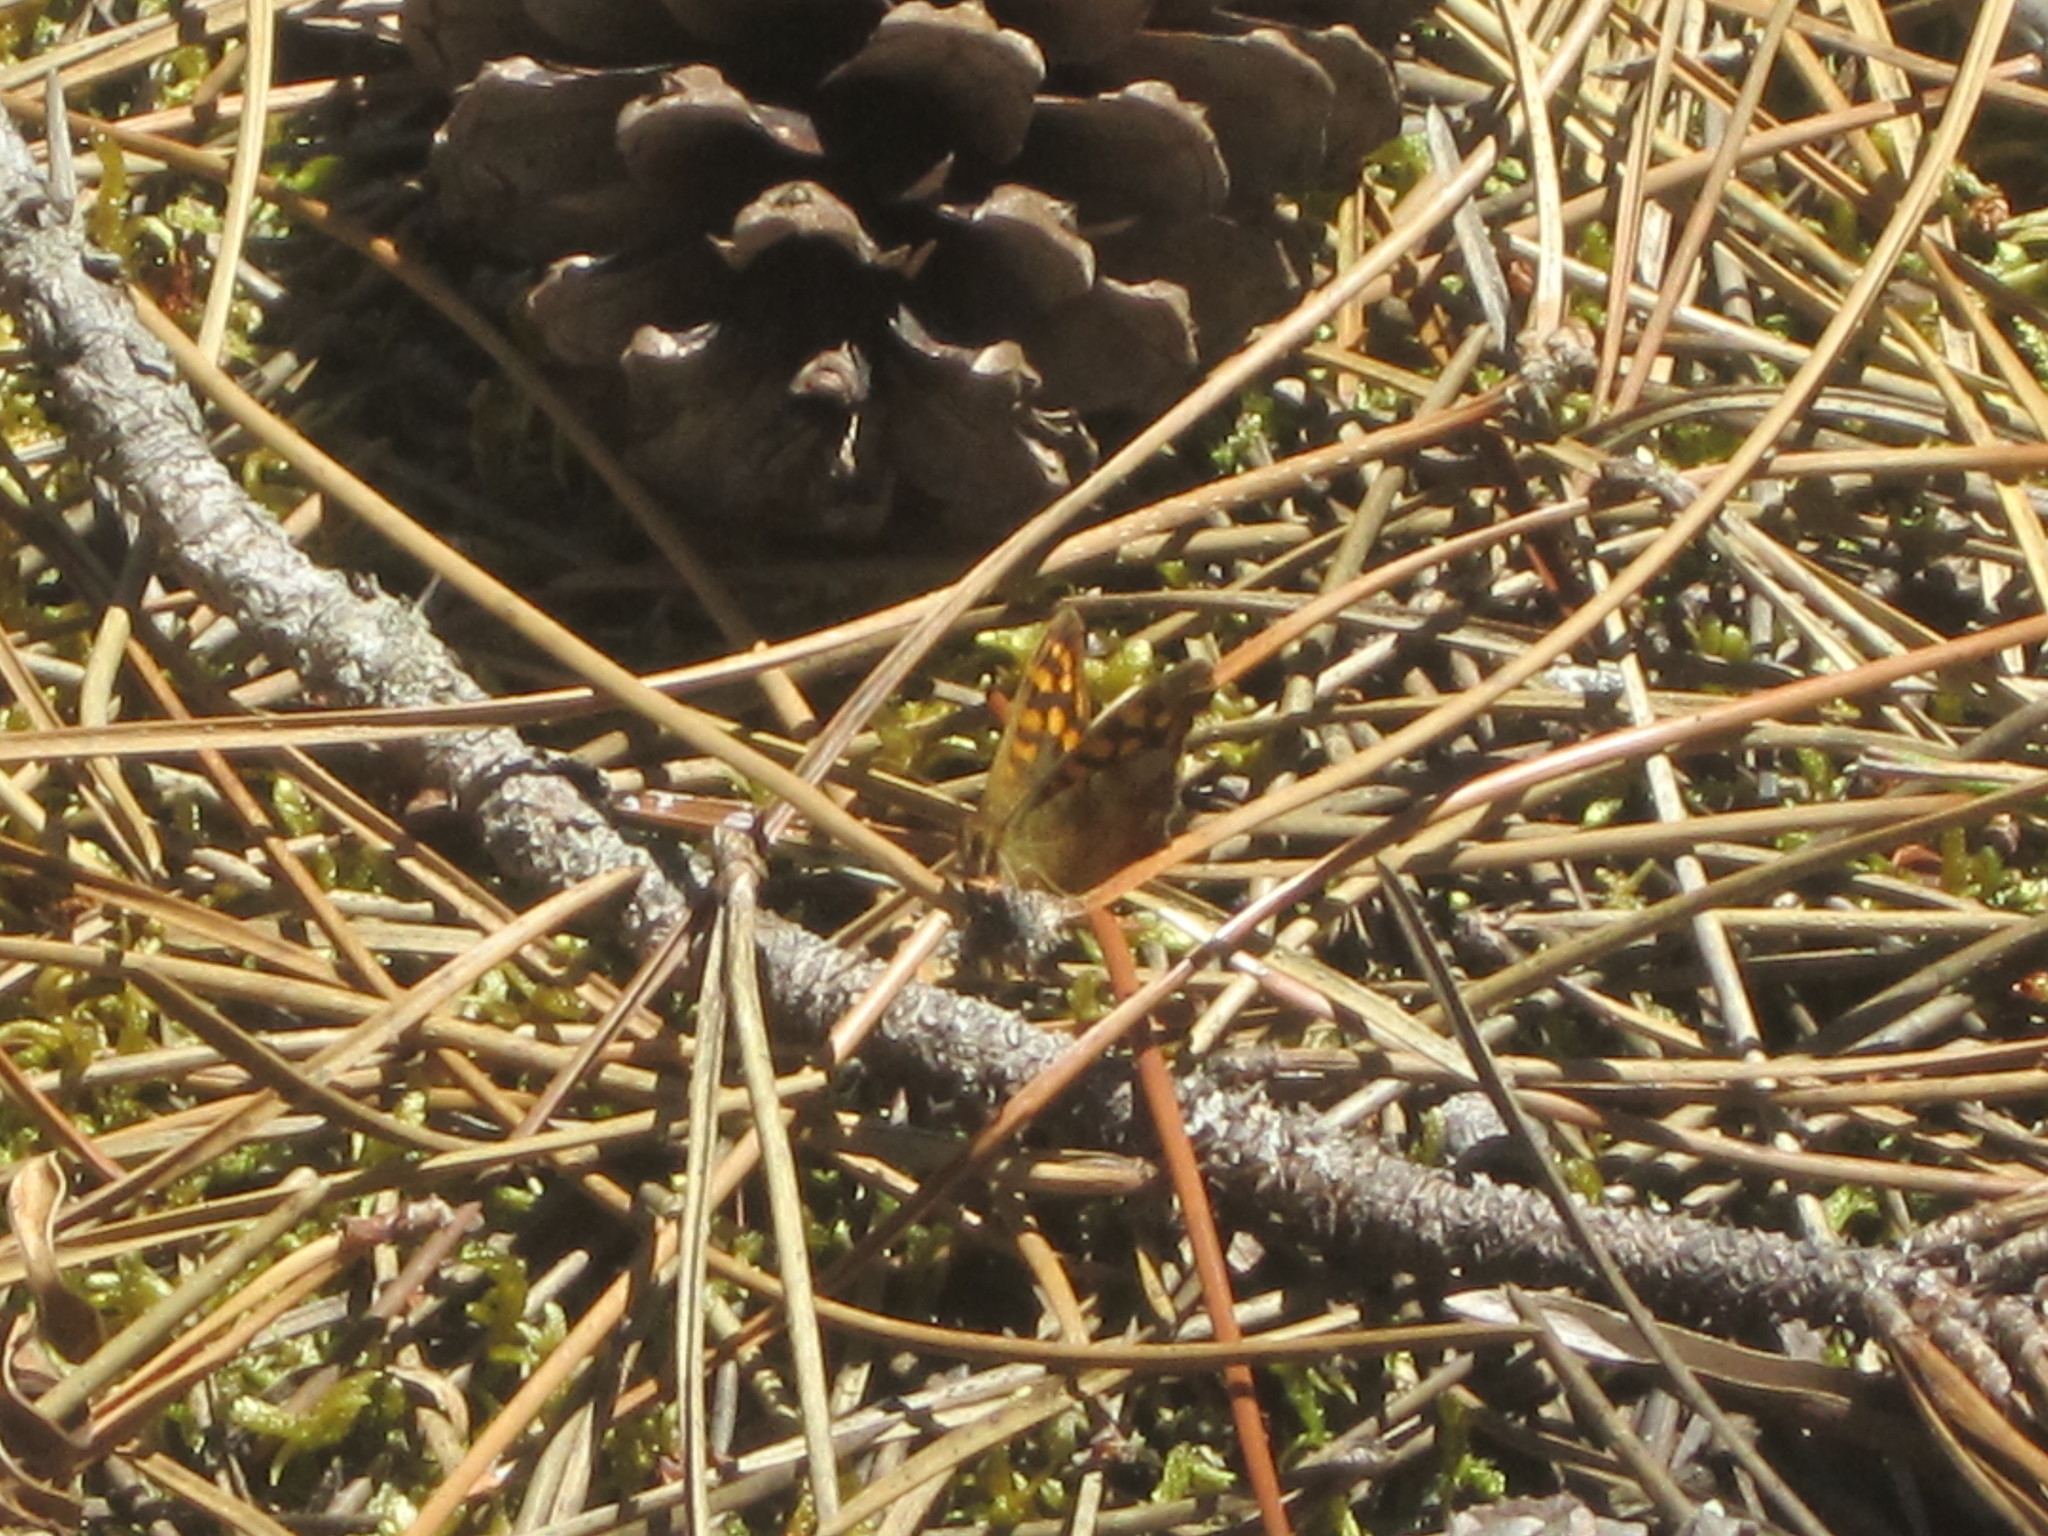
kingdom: Animalia
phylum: Arthropoda
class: Insecta
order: Lepidoptera
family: Nymphalidae
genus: Pararge
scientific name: Pararge aegeria
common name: Speckled wood
